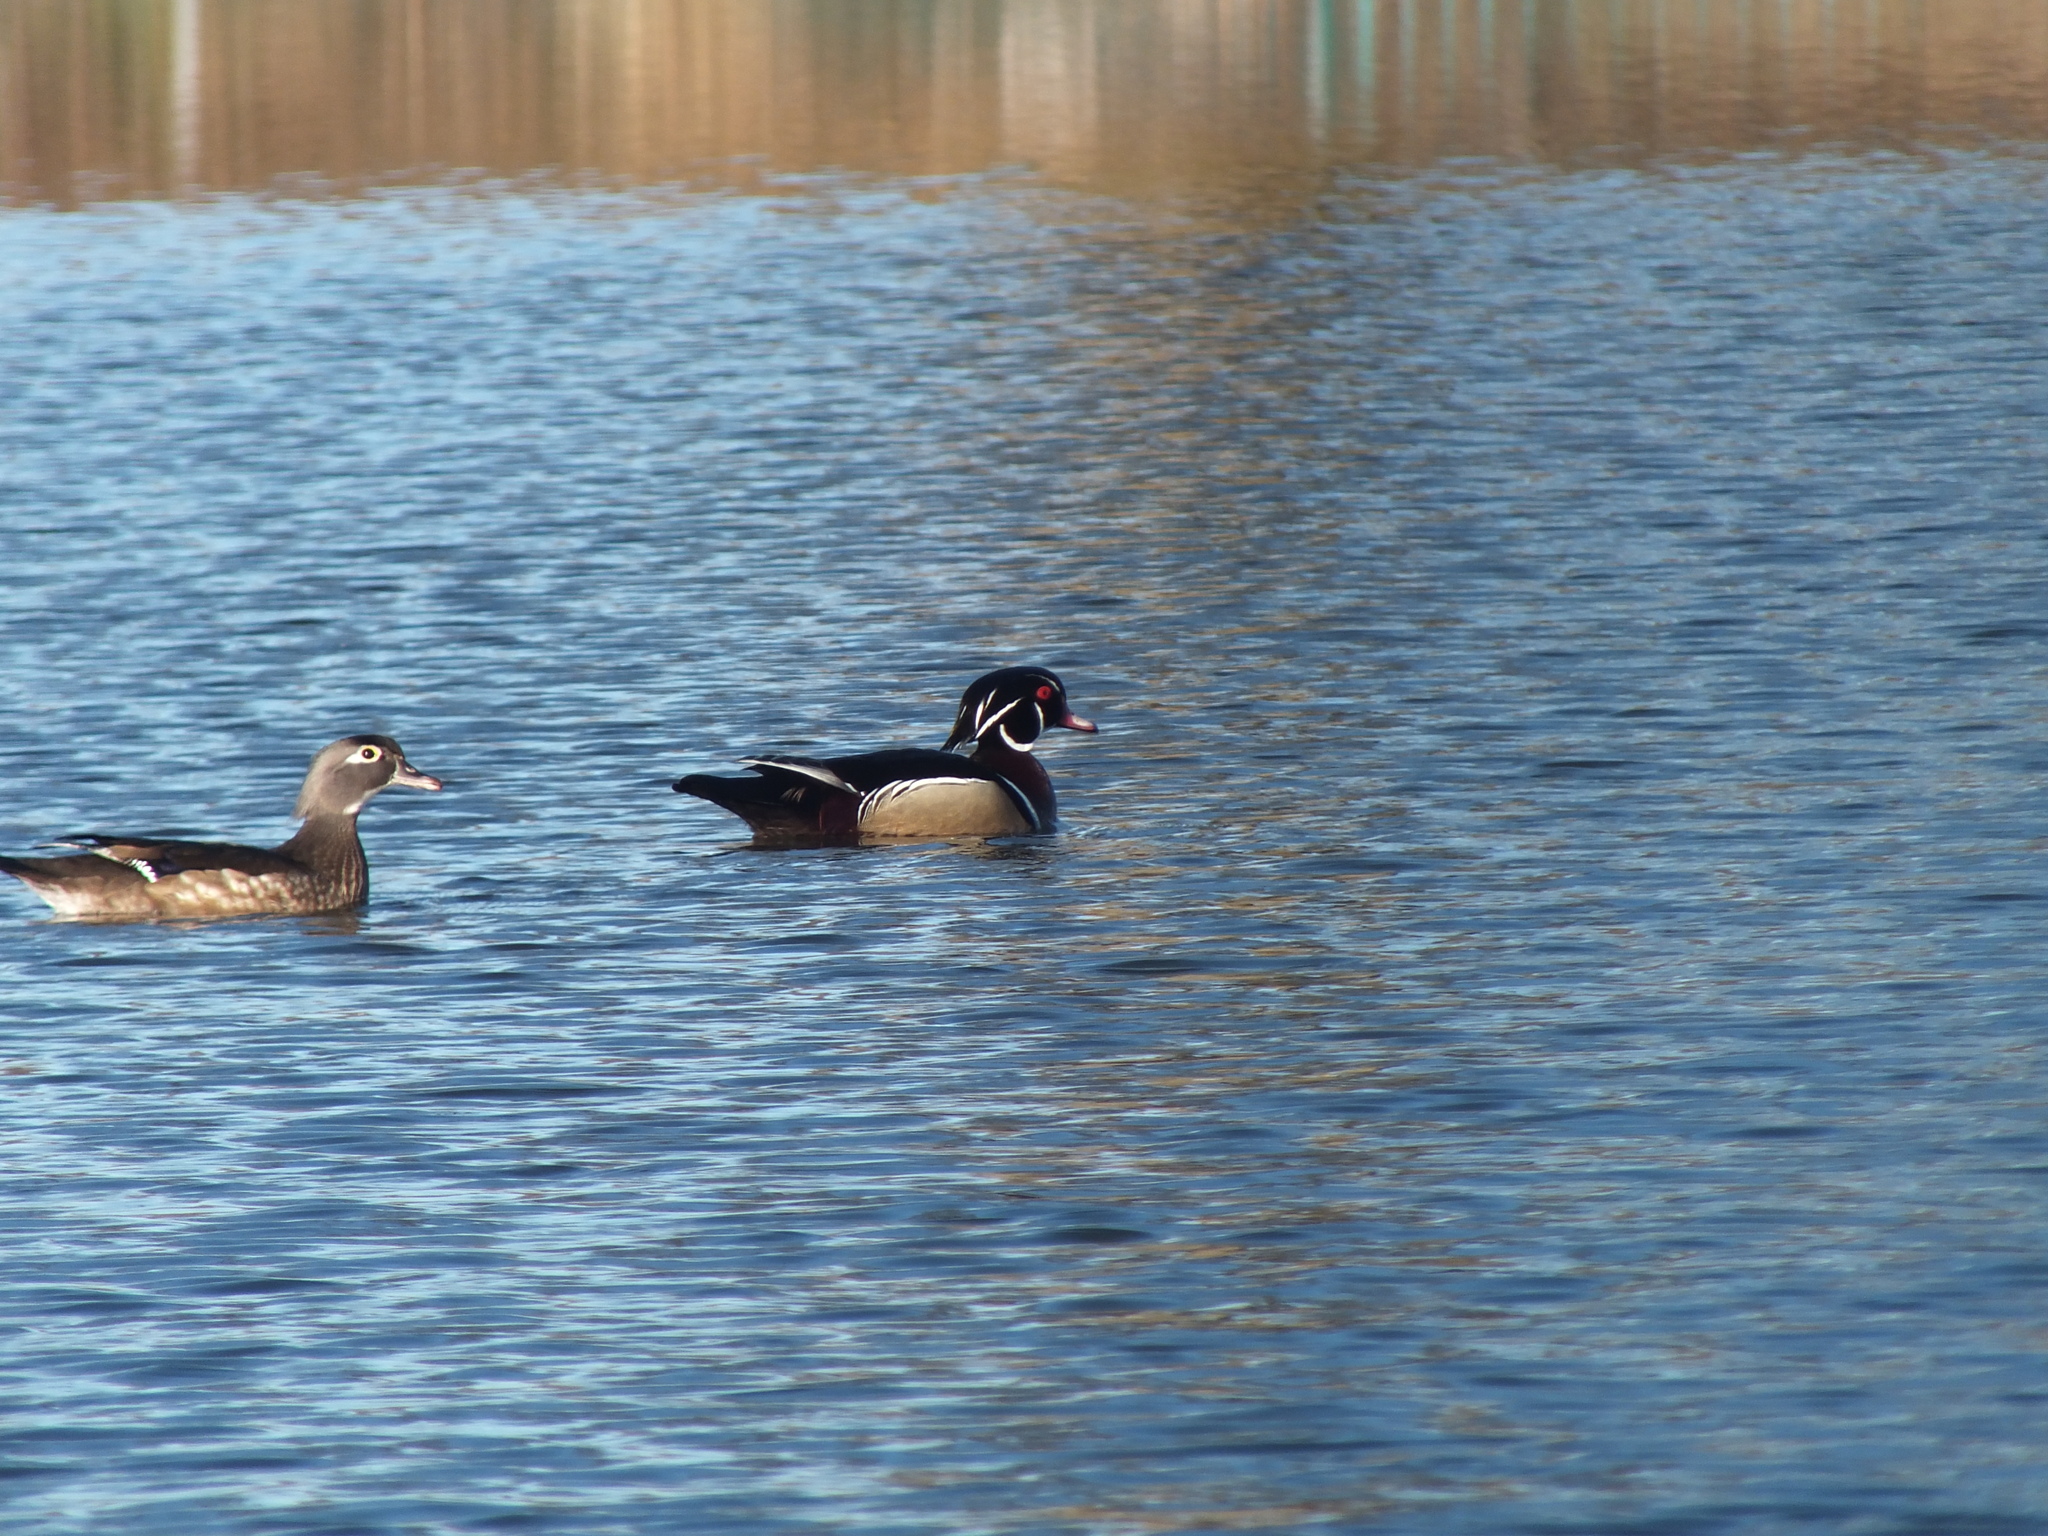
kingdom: Animalia
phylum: Chordata
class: Aves
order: Anseriformes
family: Anatidae
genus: Aix
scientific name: Aix sponsa
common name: Wood duck
